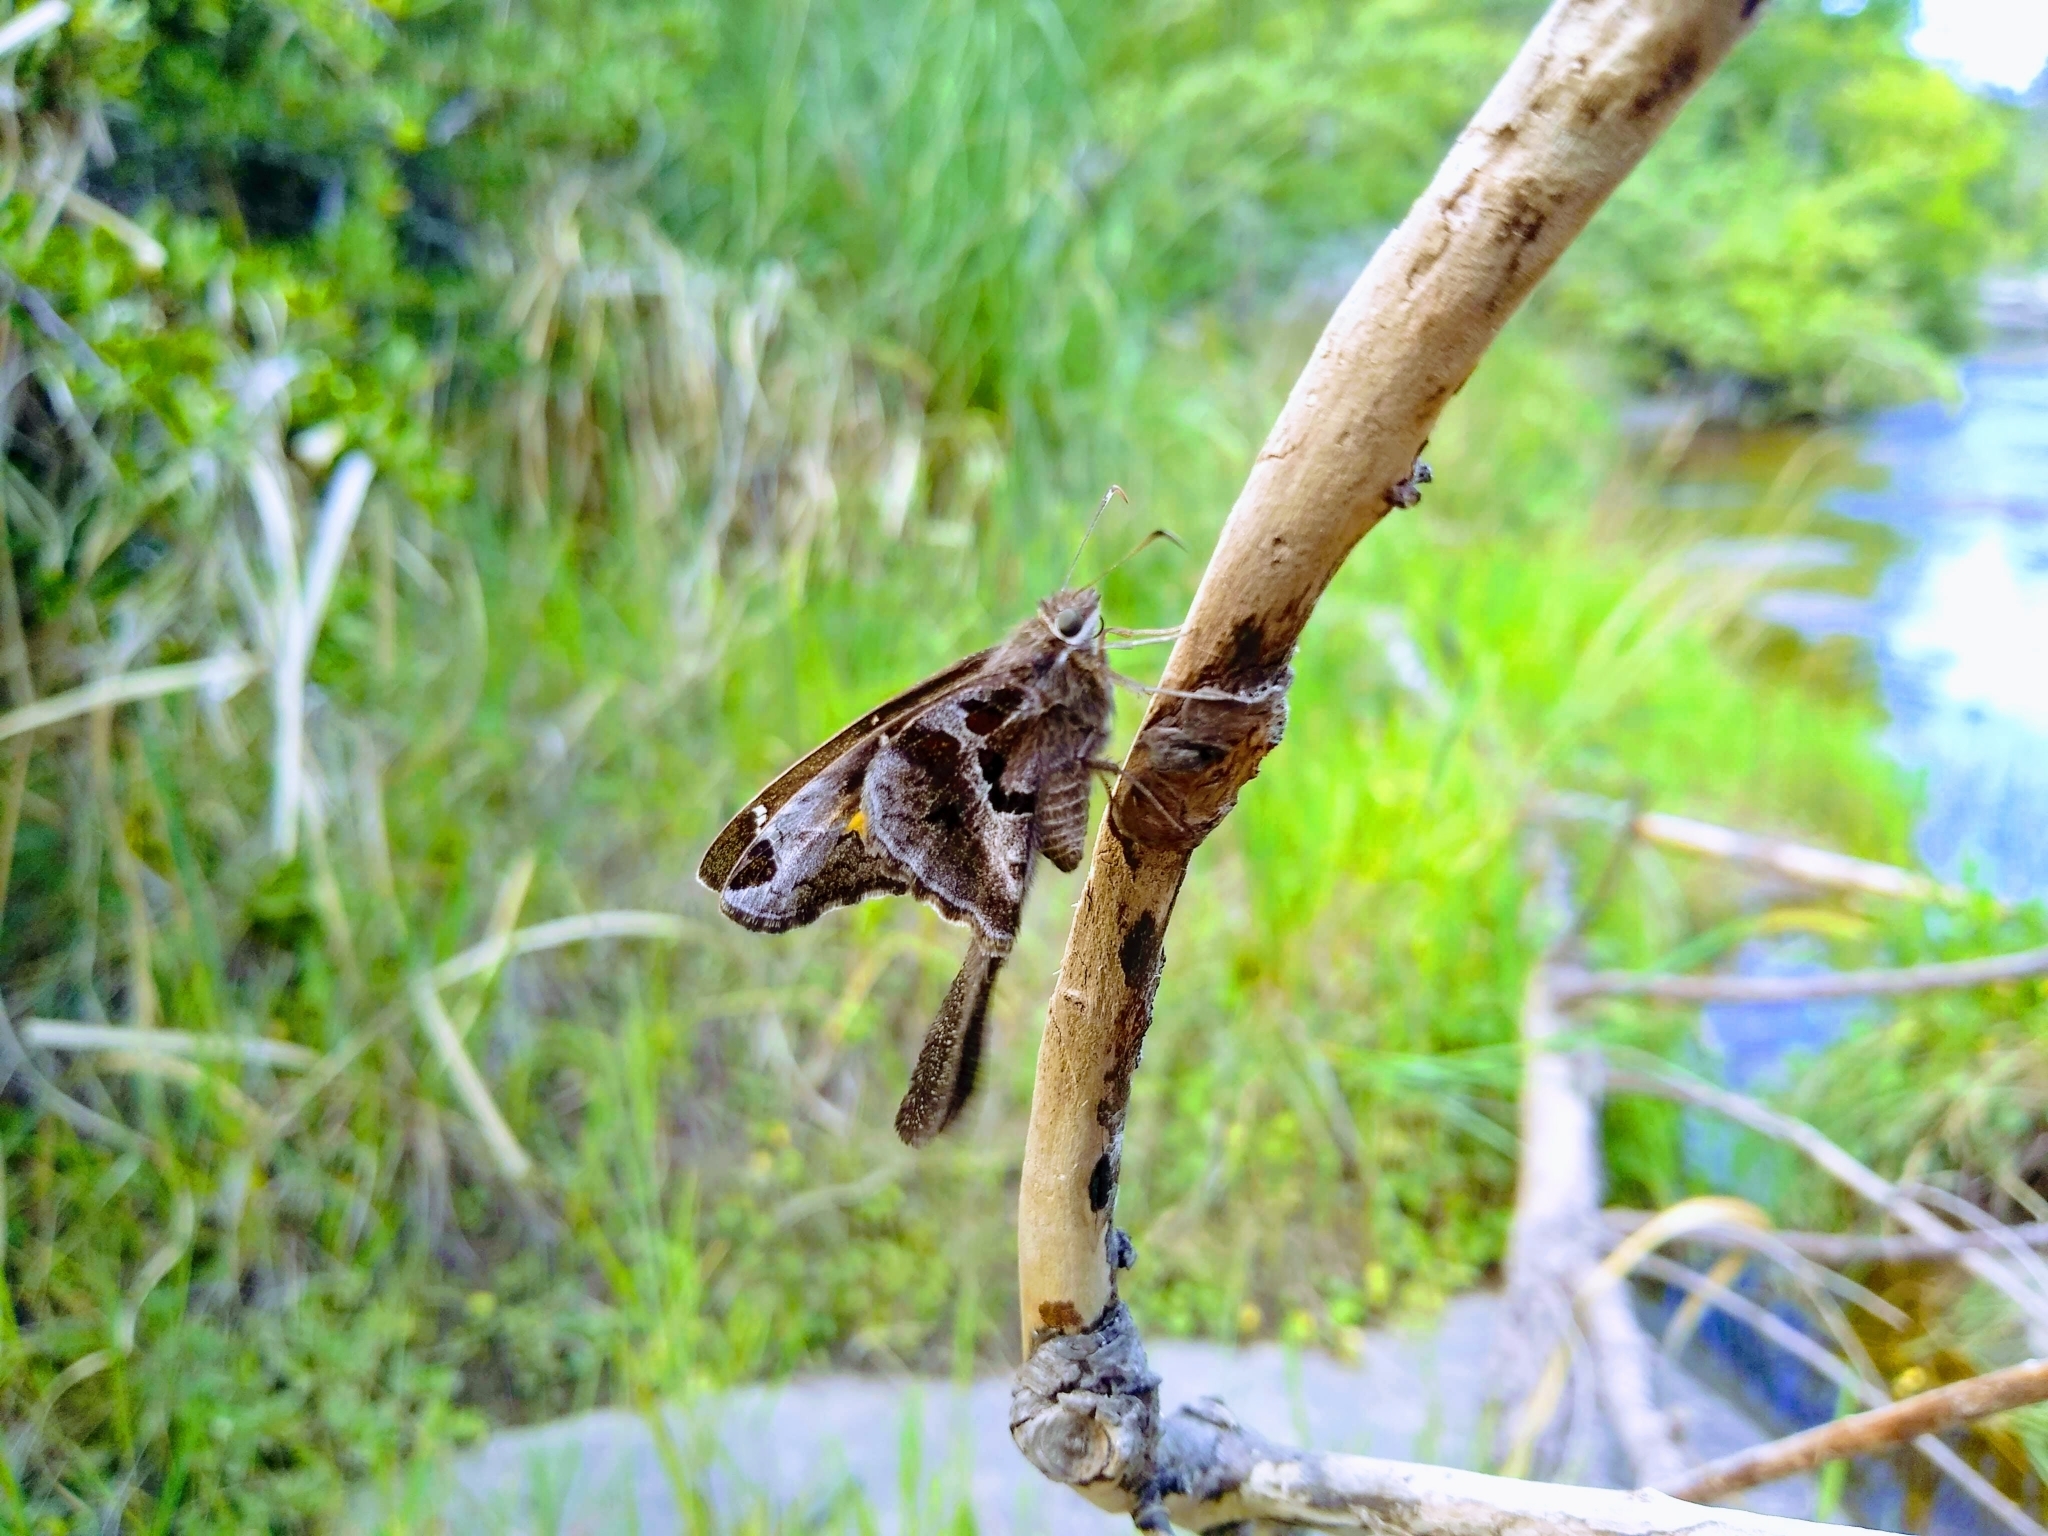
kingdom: Animalia
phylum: Arthropoda
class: Insecta
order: Lepidoptera
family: Hesperiidae
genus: Chioides
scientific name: Chioides catillus
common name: Silverbanded skipper
